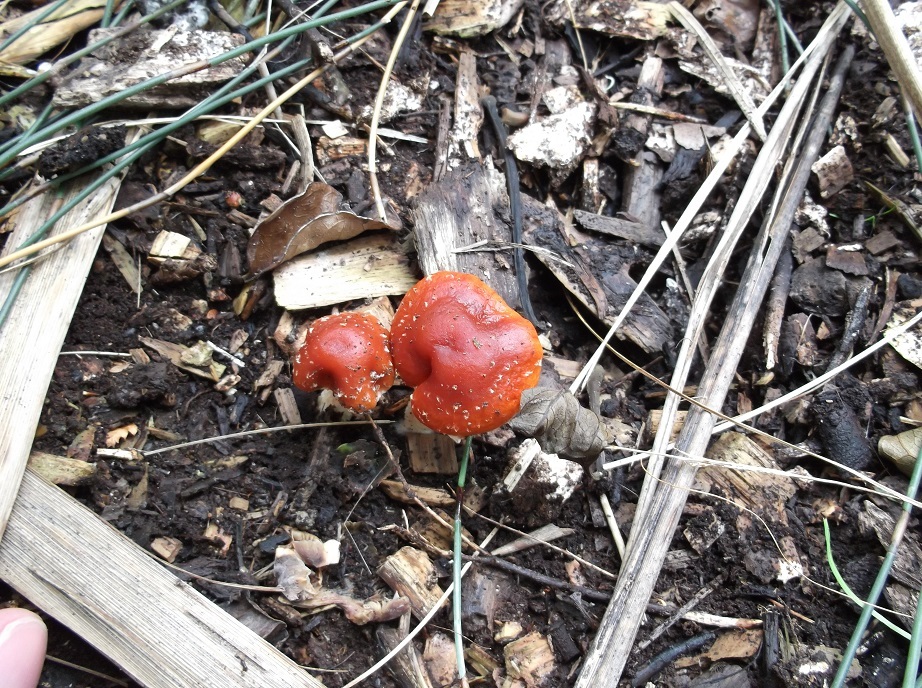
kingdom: Fungi
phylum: Basidiomycota
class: Agaricomycetes
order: Agaricales
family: Strophariaceae
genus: Leratiomyces
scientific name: Leratiomyces ceres
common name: Redlead roundhead
